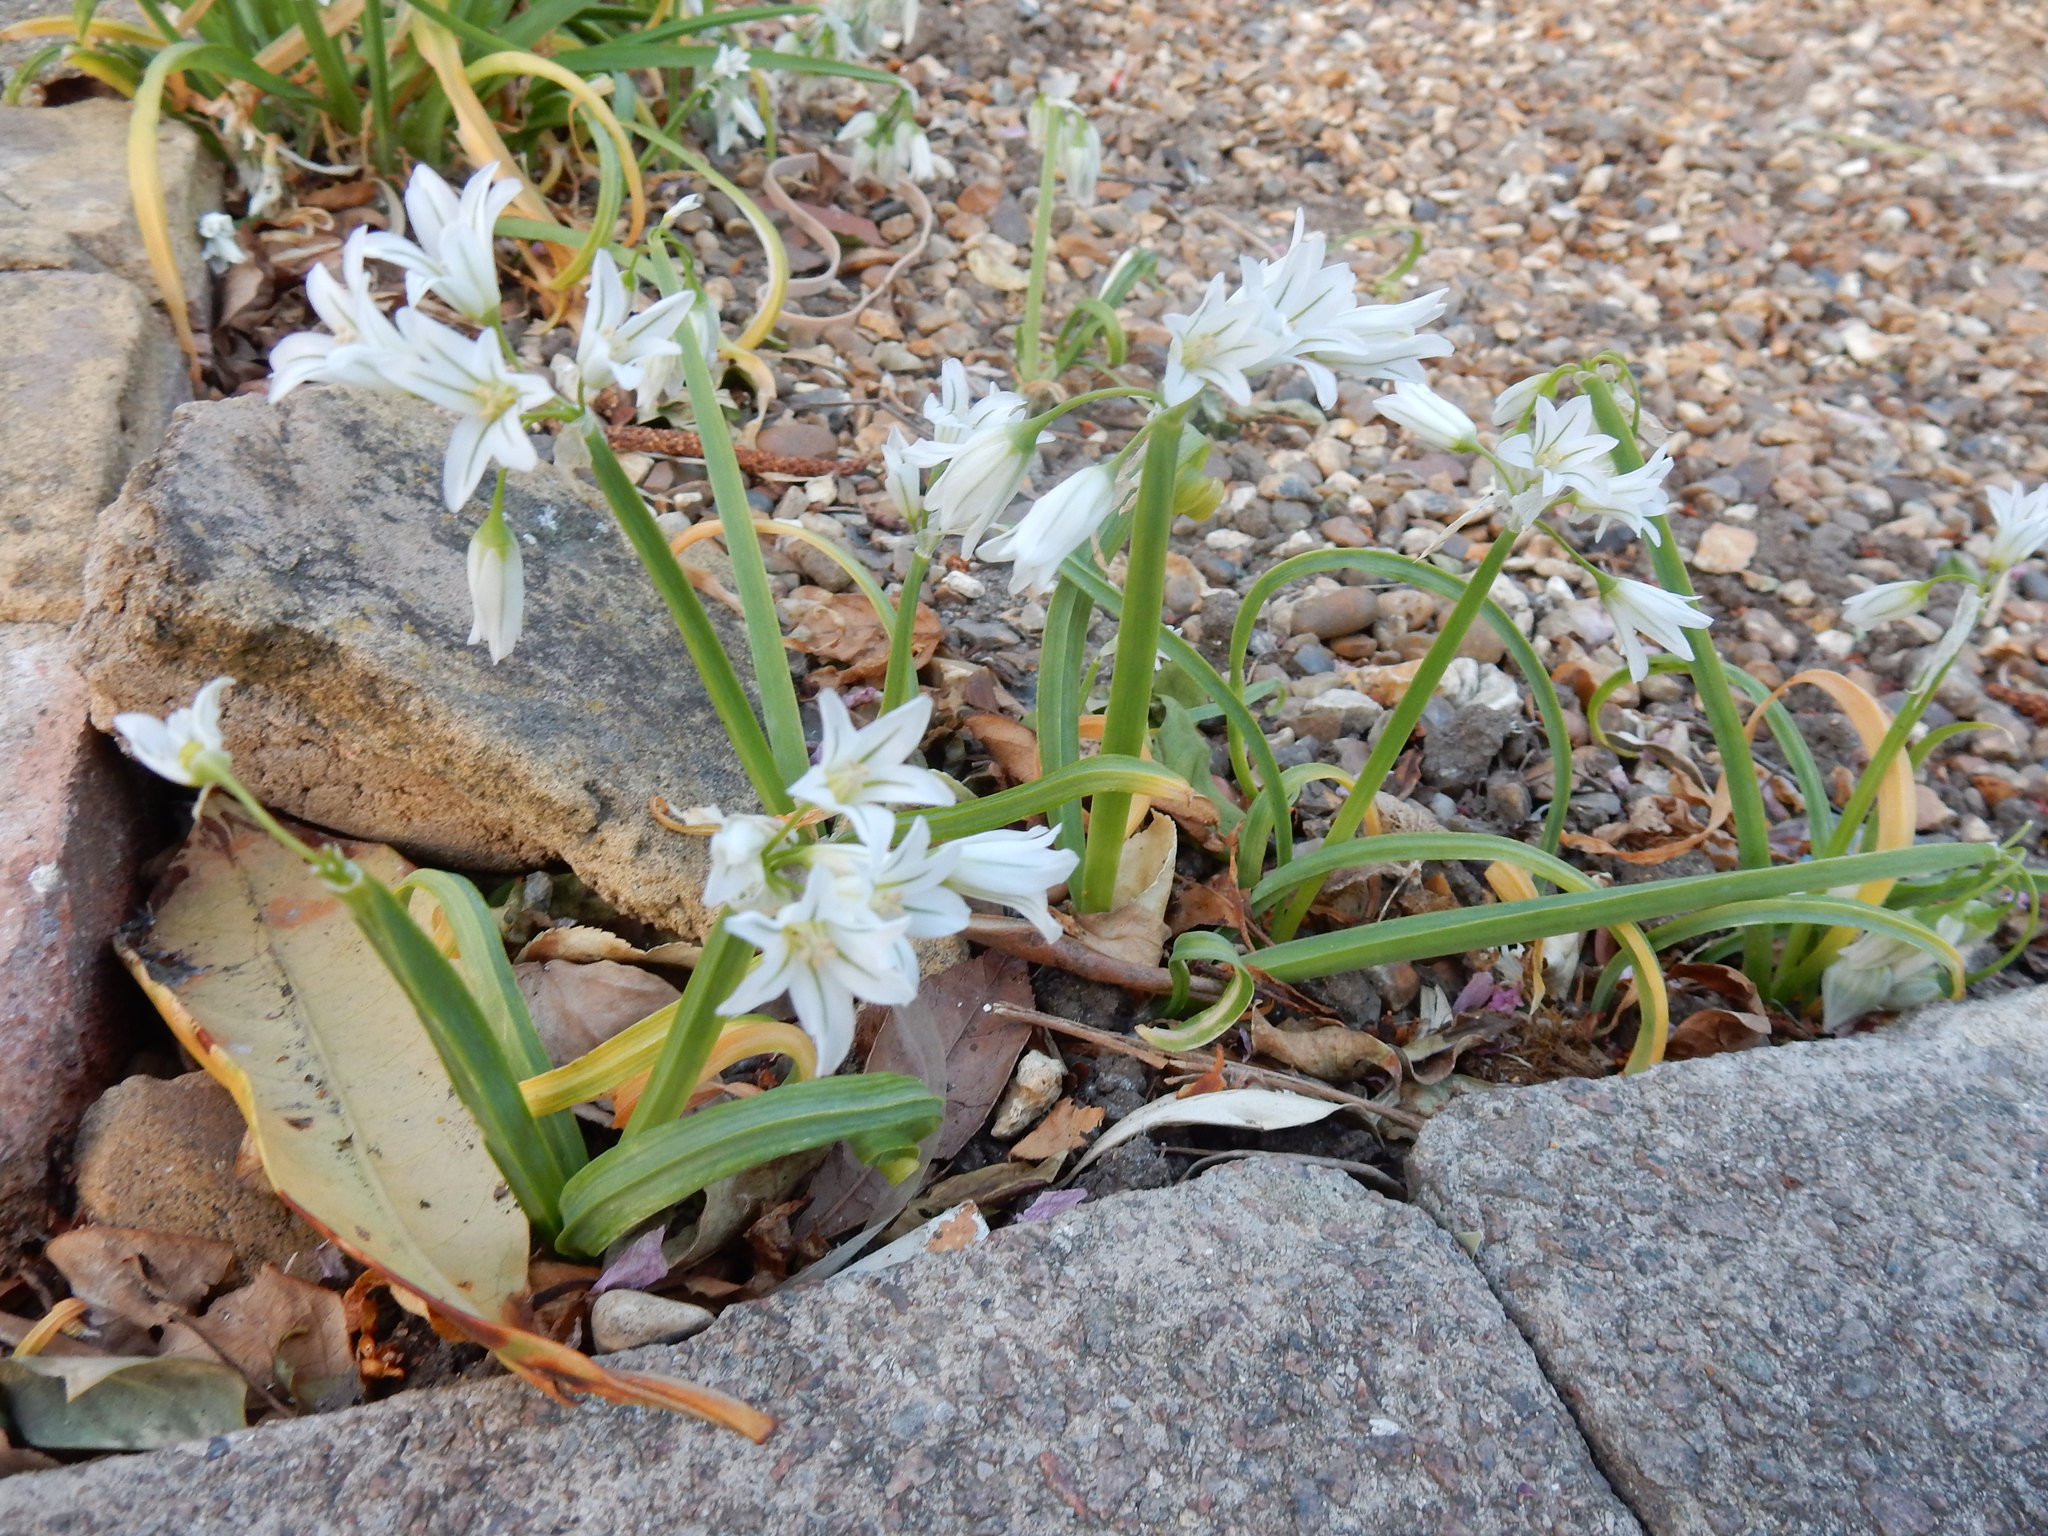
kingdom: Plantae
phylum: Tracheophyta
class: Liliopsida
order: Asparagales
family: Amaryllidaceae
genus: Allium
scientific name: Allium triquetrum
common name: Three-cornered garlic
